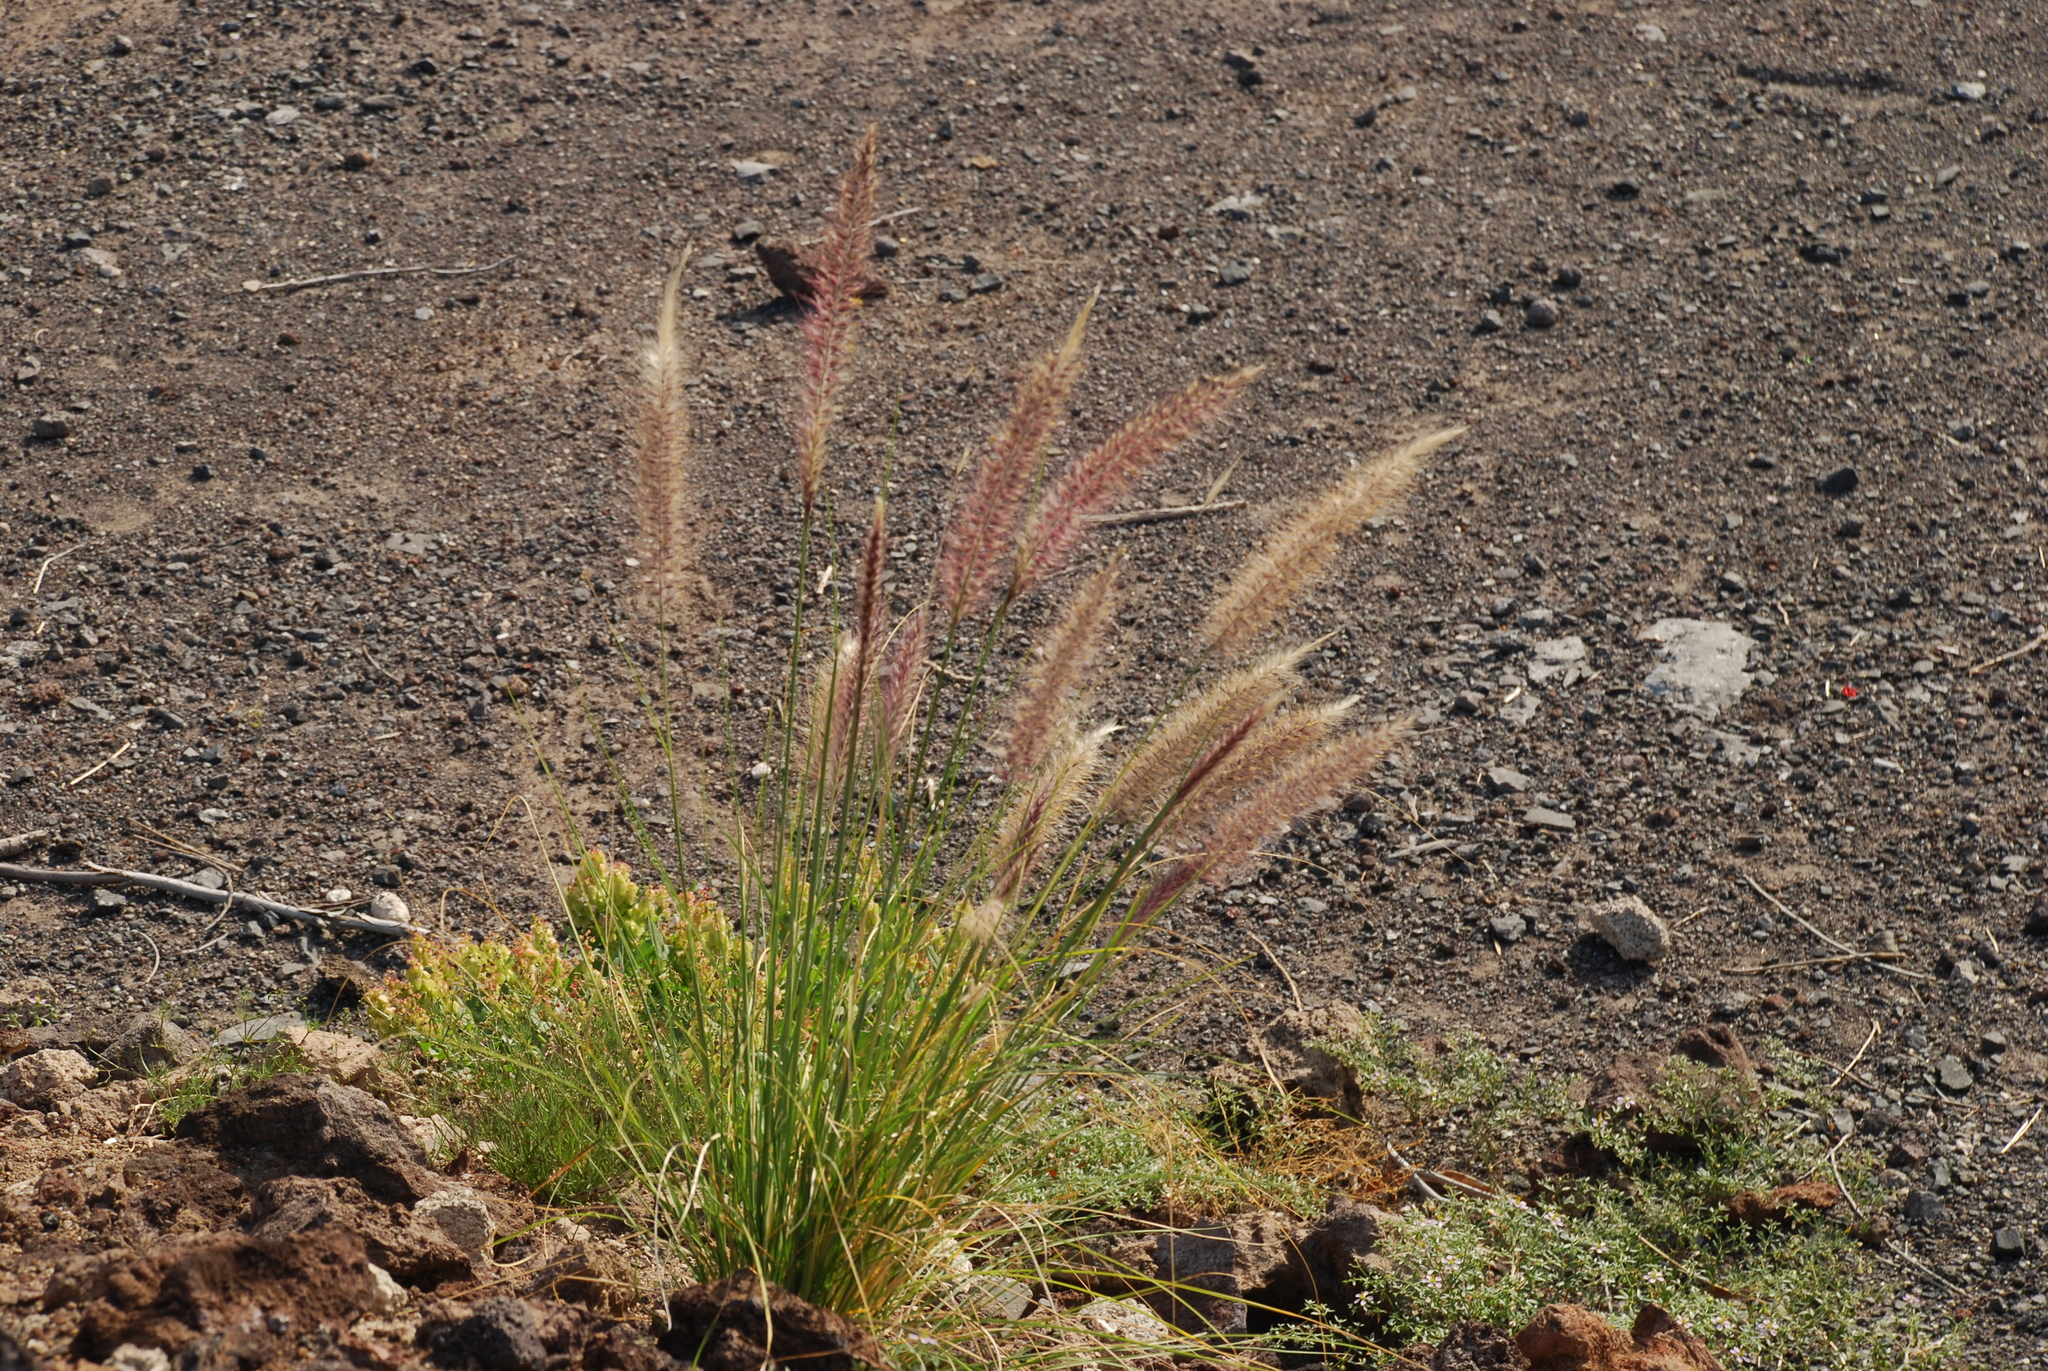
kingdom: Plantae
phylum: Tracheophyta
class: Liliopsida
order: Poales
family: Poaceae
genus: Cenchrus
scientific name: Cenchrus setaceus
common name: Crimson fountaingrass
